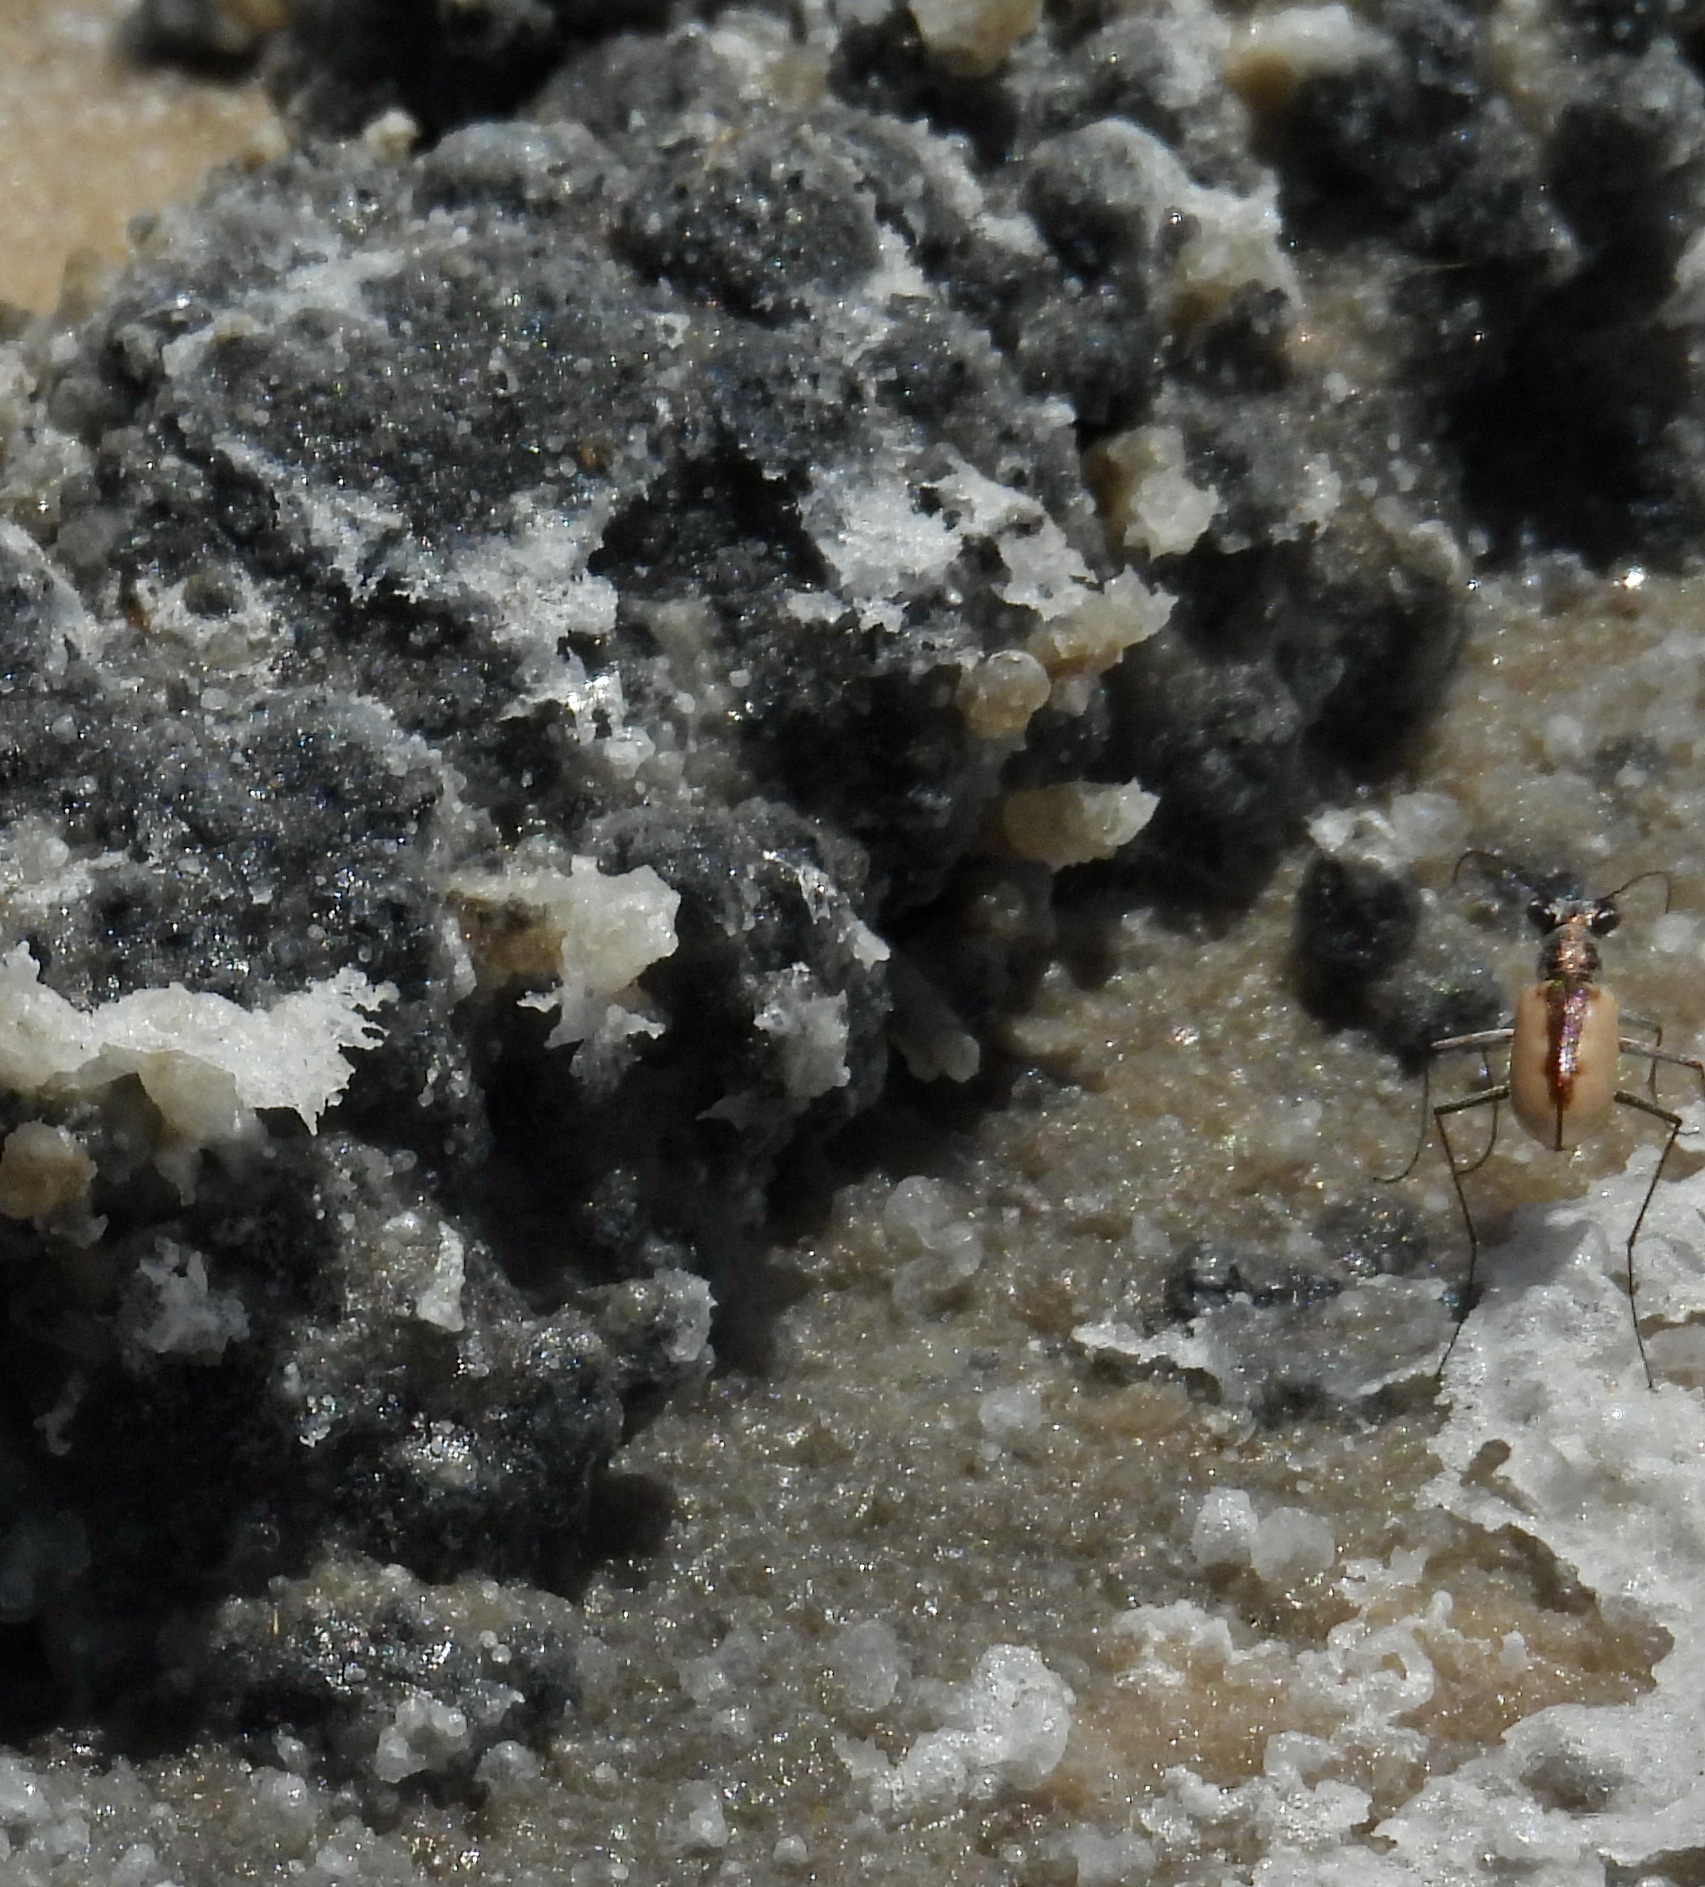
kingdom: Animalia
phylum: Arthropoda
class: Insecta
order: Coleoptera
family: Carabidae
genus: Eunota
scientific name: Eunota togata
